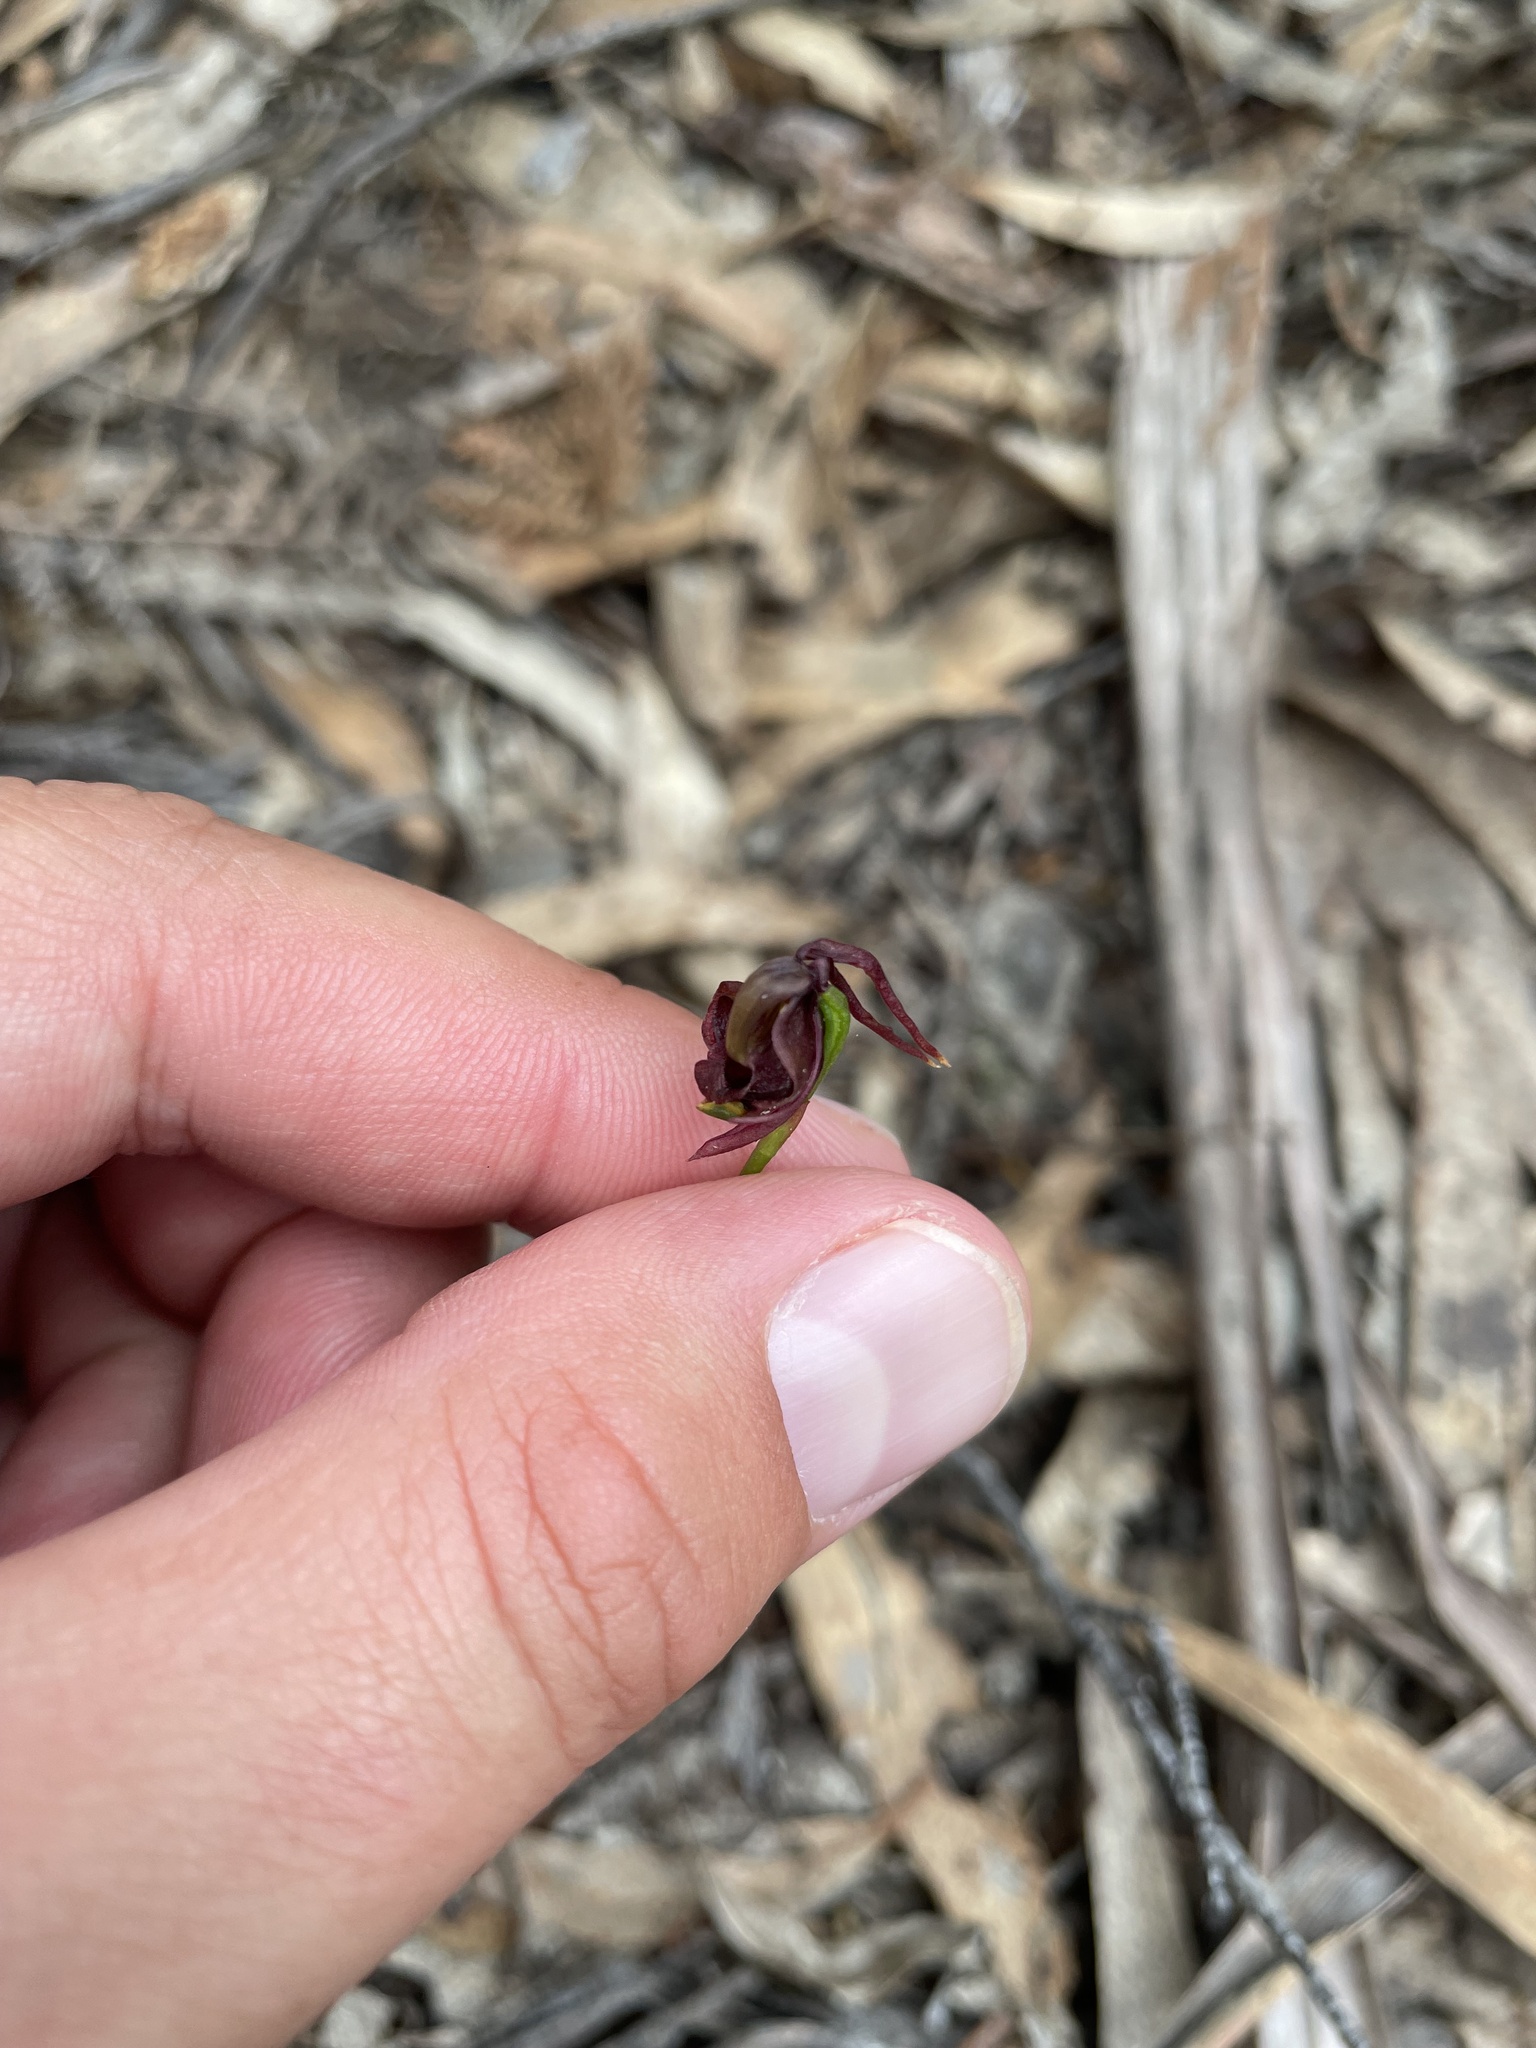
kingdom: Plantae
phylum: Tracheophyta
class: Liliopsida
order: Asparagales
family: Orchidaceae
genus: Caleana
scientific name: Caleana major
